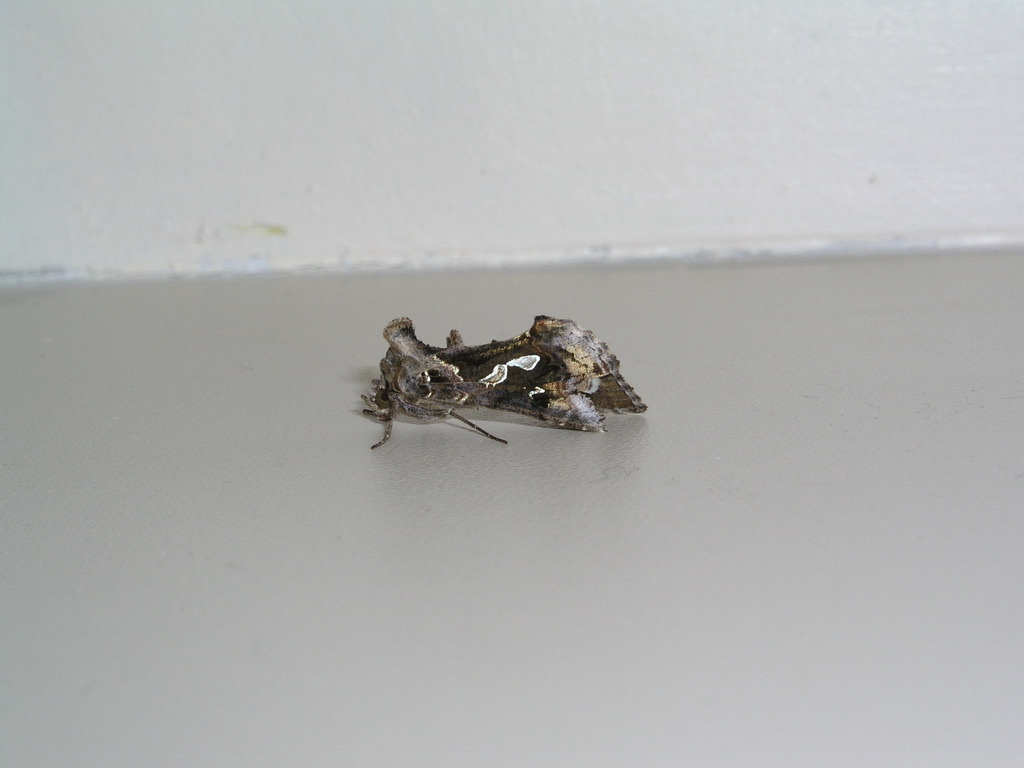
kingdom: Animalia
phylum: Arthropoda
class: Insecta
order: Lepidoptera
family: Noctuidae
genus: Chrysodeixis
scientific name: Chrysodeixis argentifera
